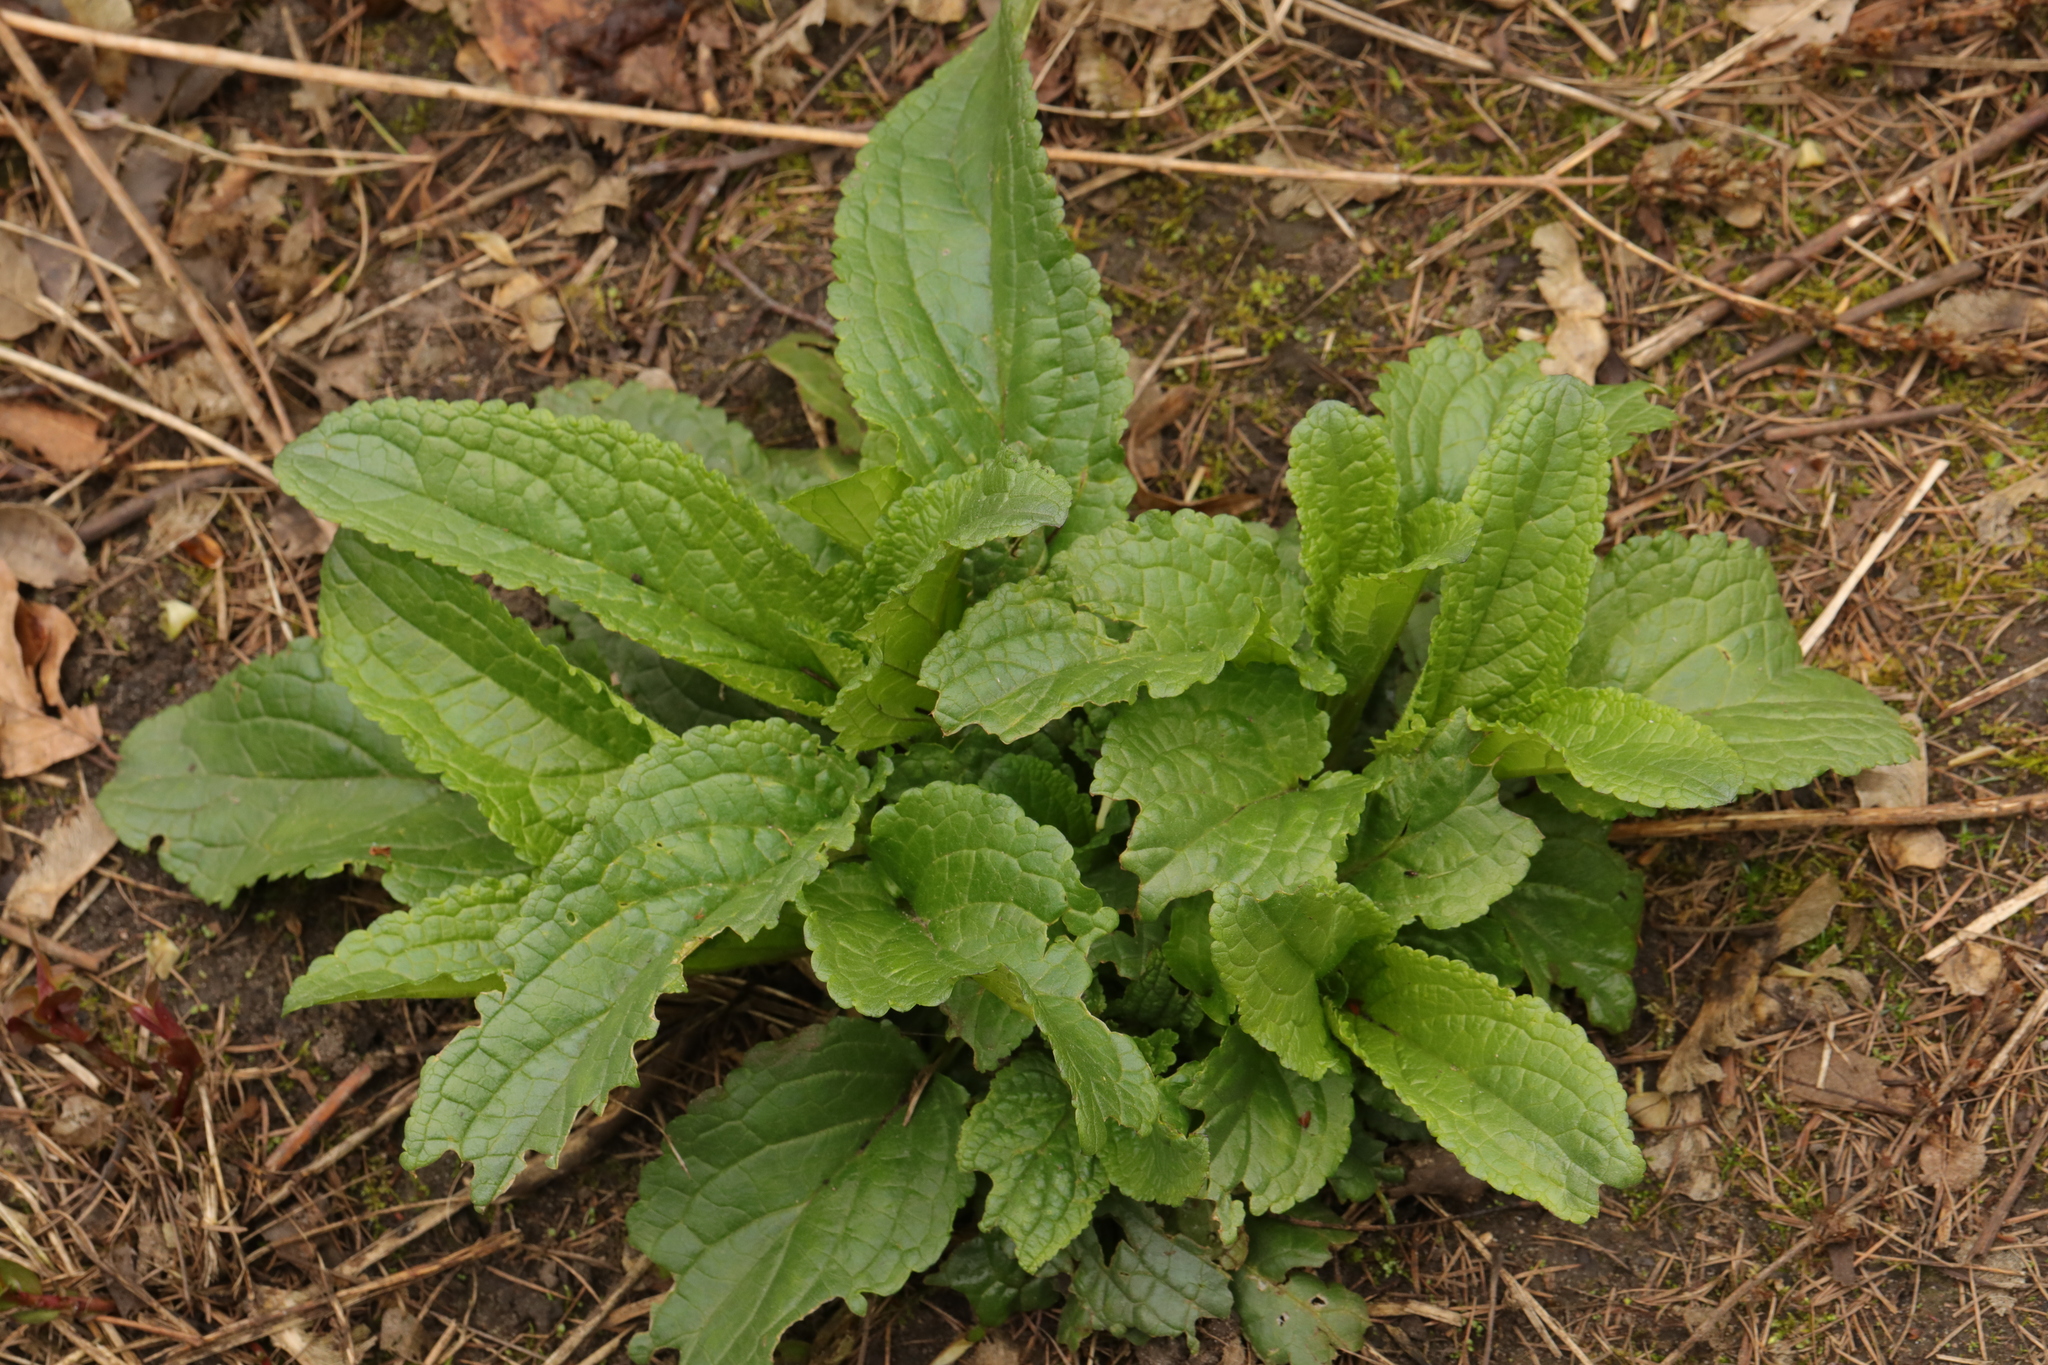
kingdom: Plantae
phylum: Tracheophyta
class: Magnoliopsida
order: Lamiales
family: Scrophulariaceae
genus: Scrophularia
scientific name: Scrophularia auriculata
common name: Water betony
